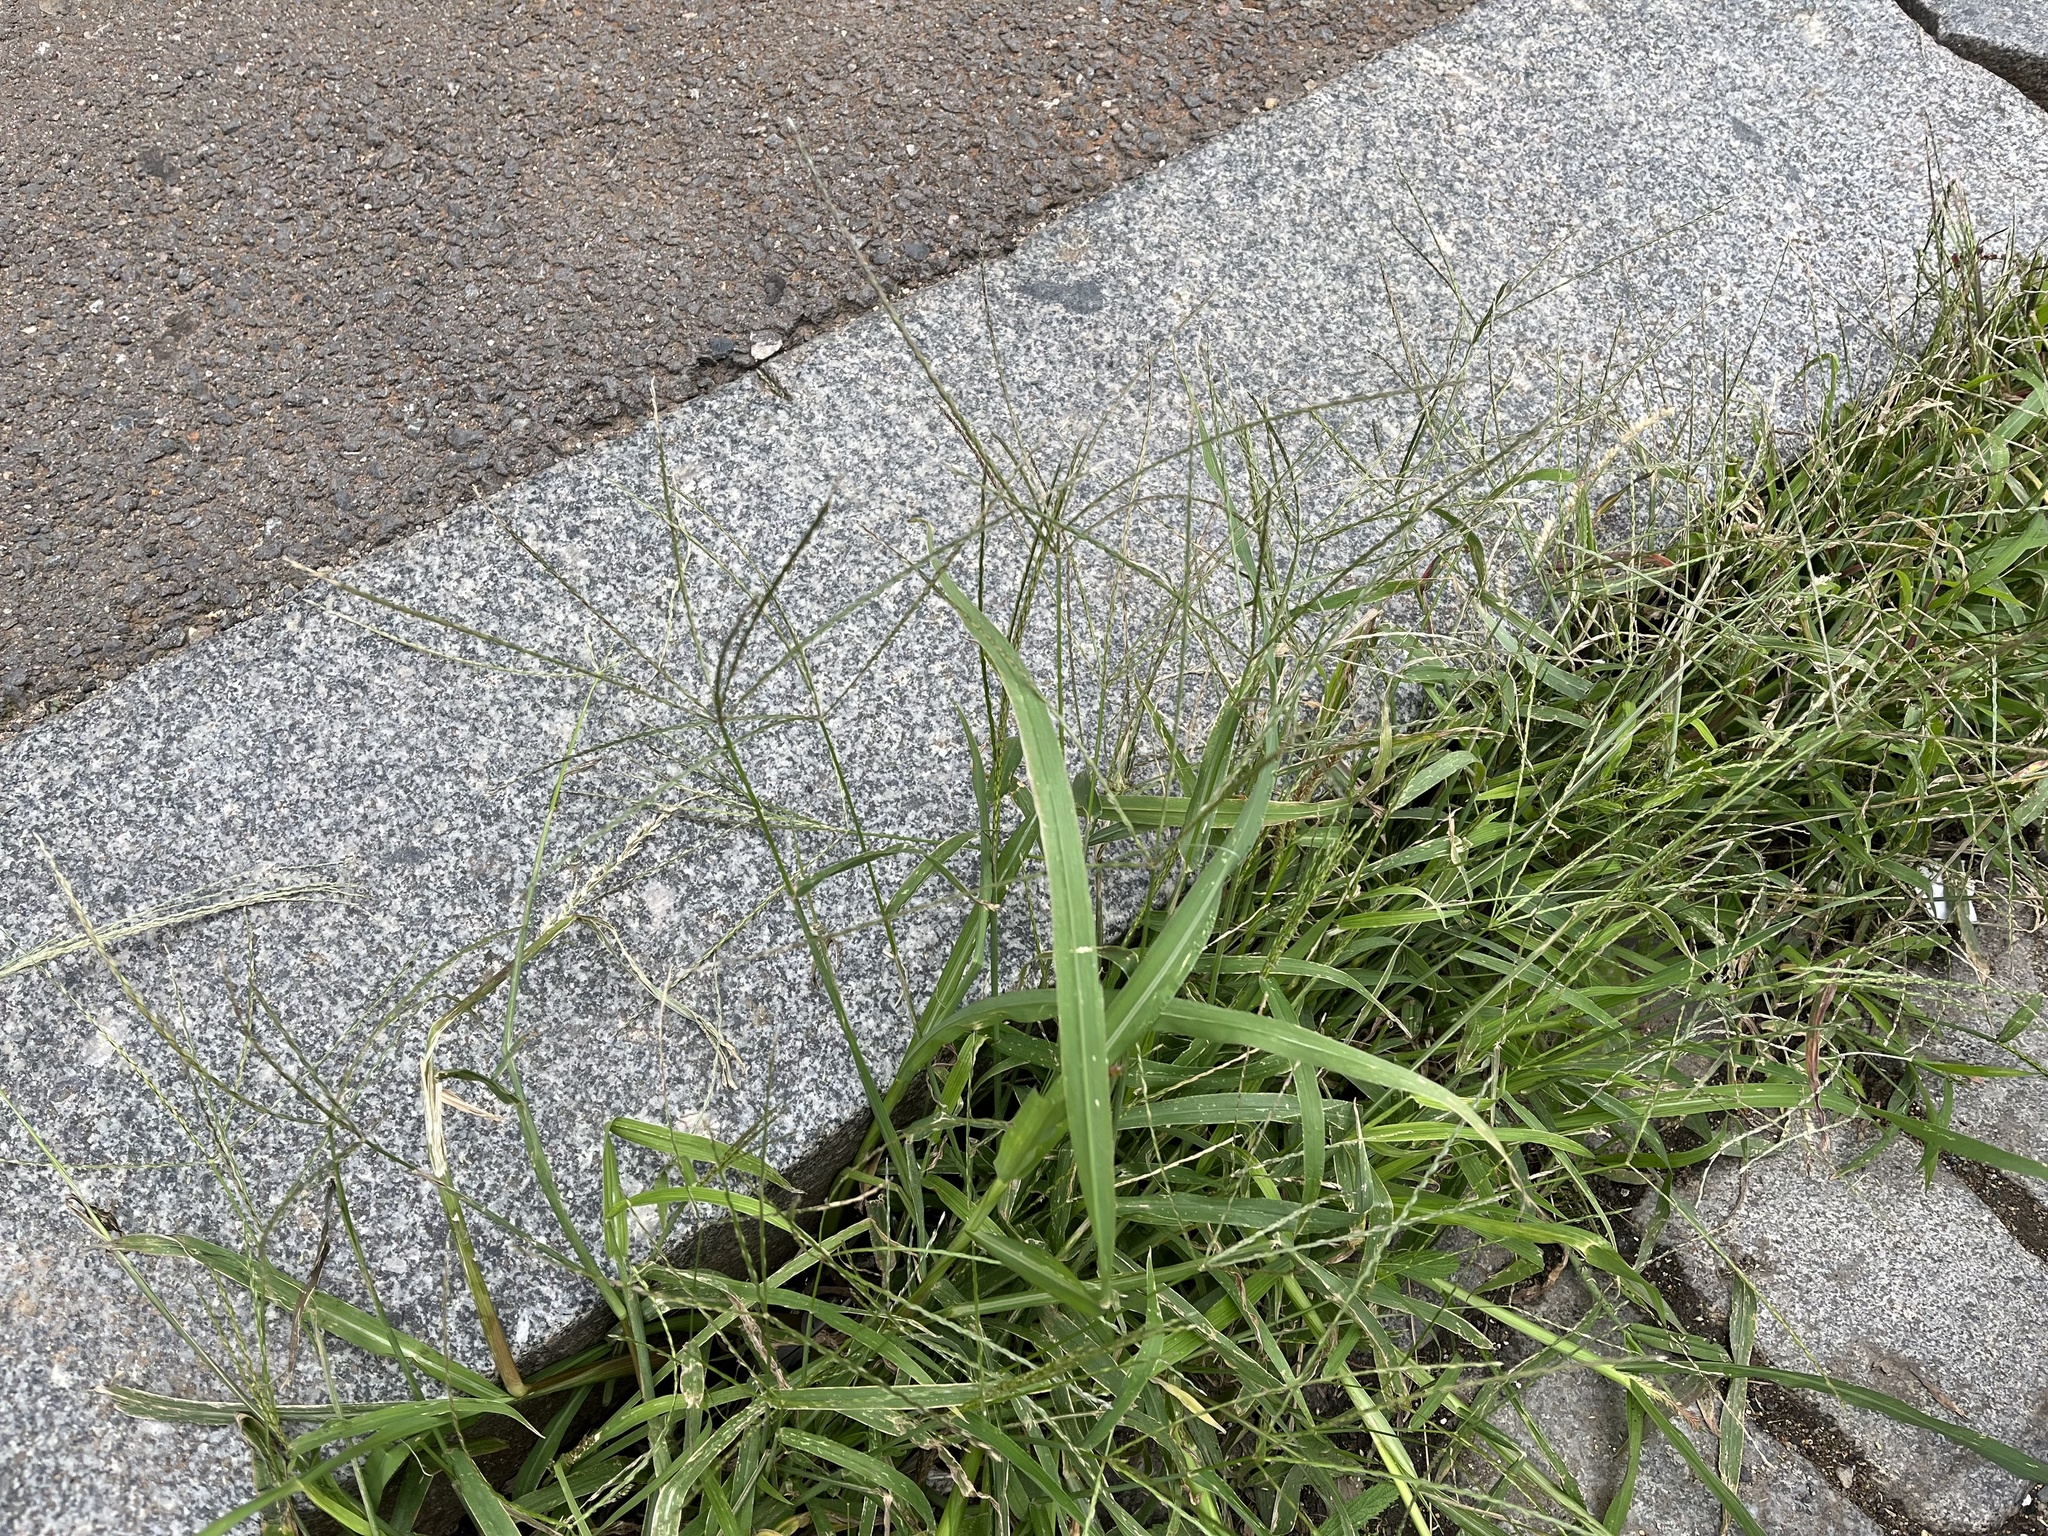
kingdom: Plantae
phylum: Tracheophyta
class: Liliopsida
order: Poales
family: Poaceae
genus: Digitaria
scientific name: Digitaria sanguinalis
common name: Hairy crabgrass
